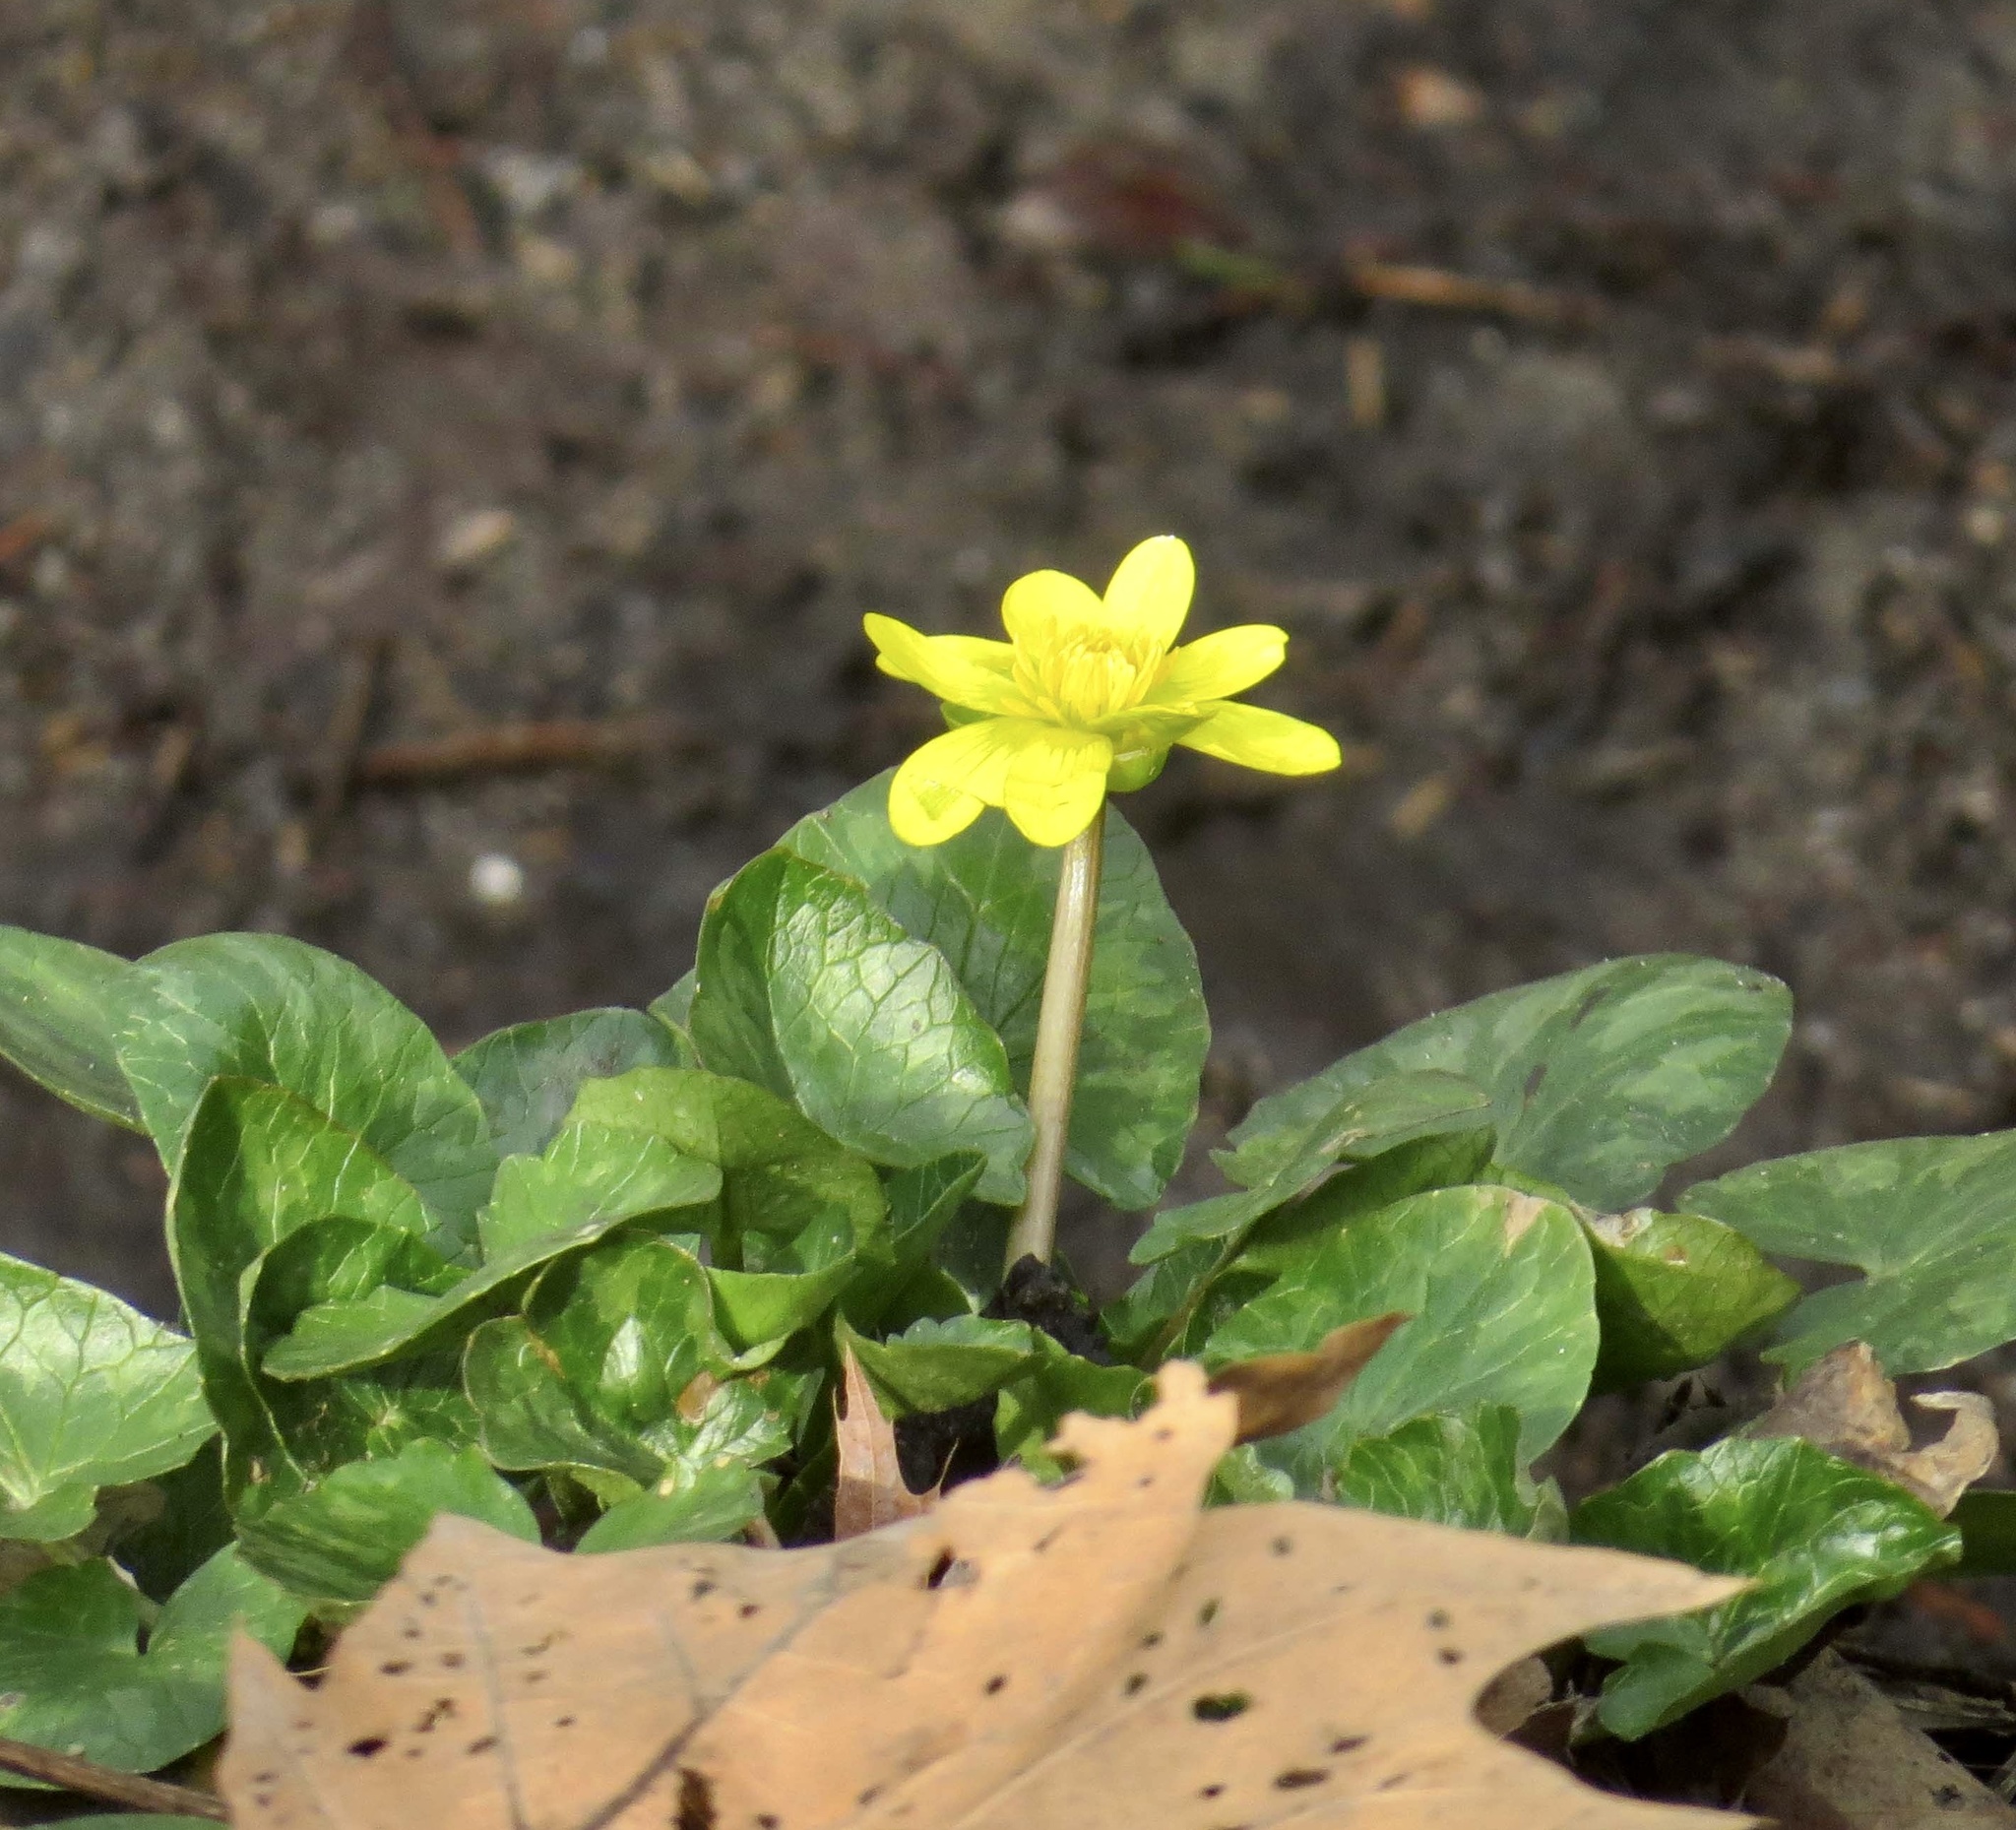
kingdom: Plantae
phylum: Tracheophyta
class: Magnoliopsida
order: Ranunculales
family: Ranunculaceae
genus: Ficaria
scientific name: Ficaria verna
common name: Lesser celandine
